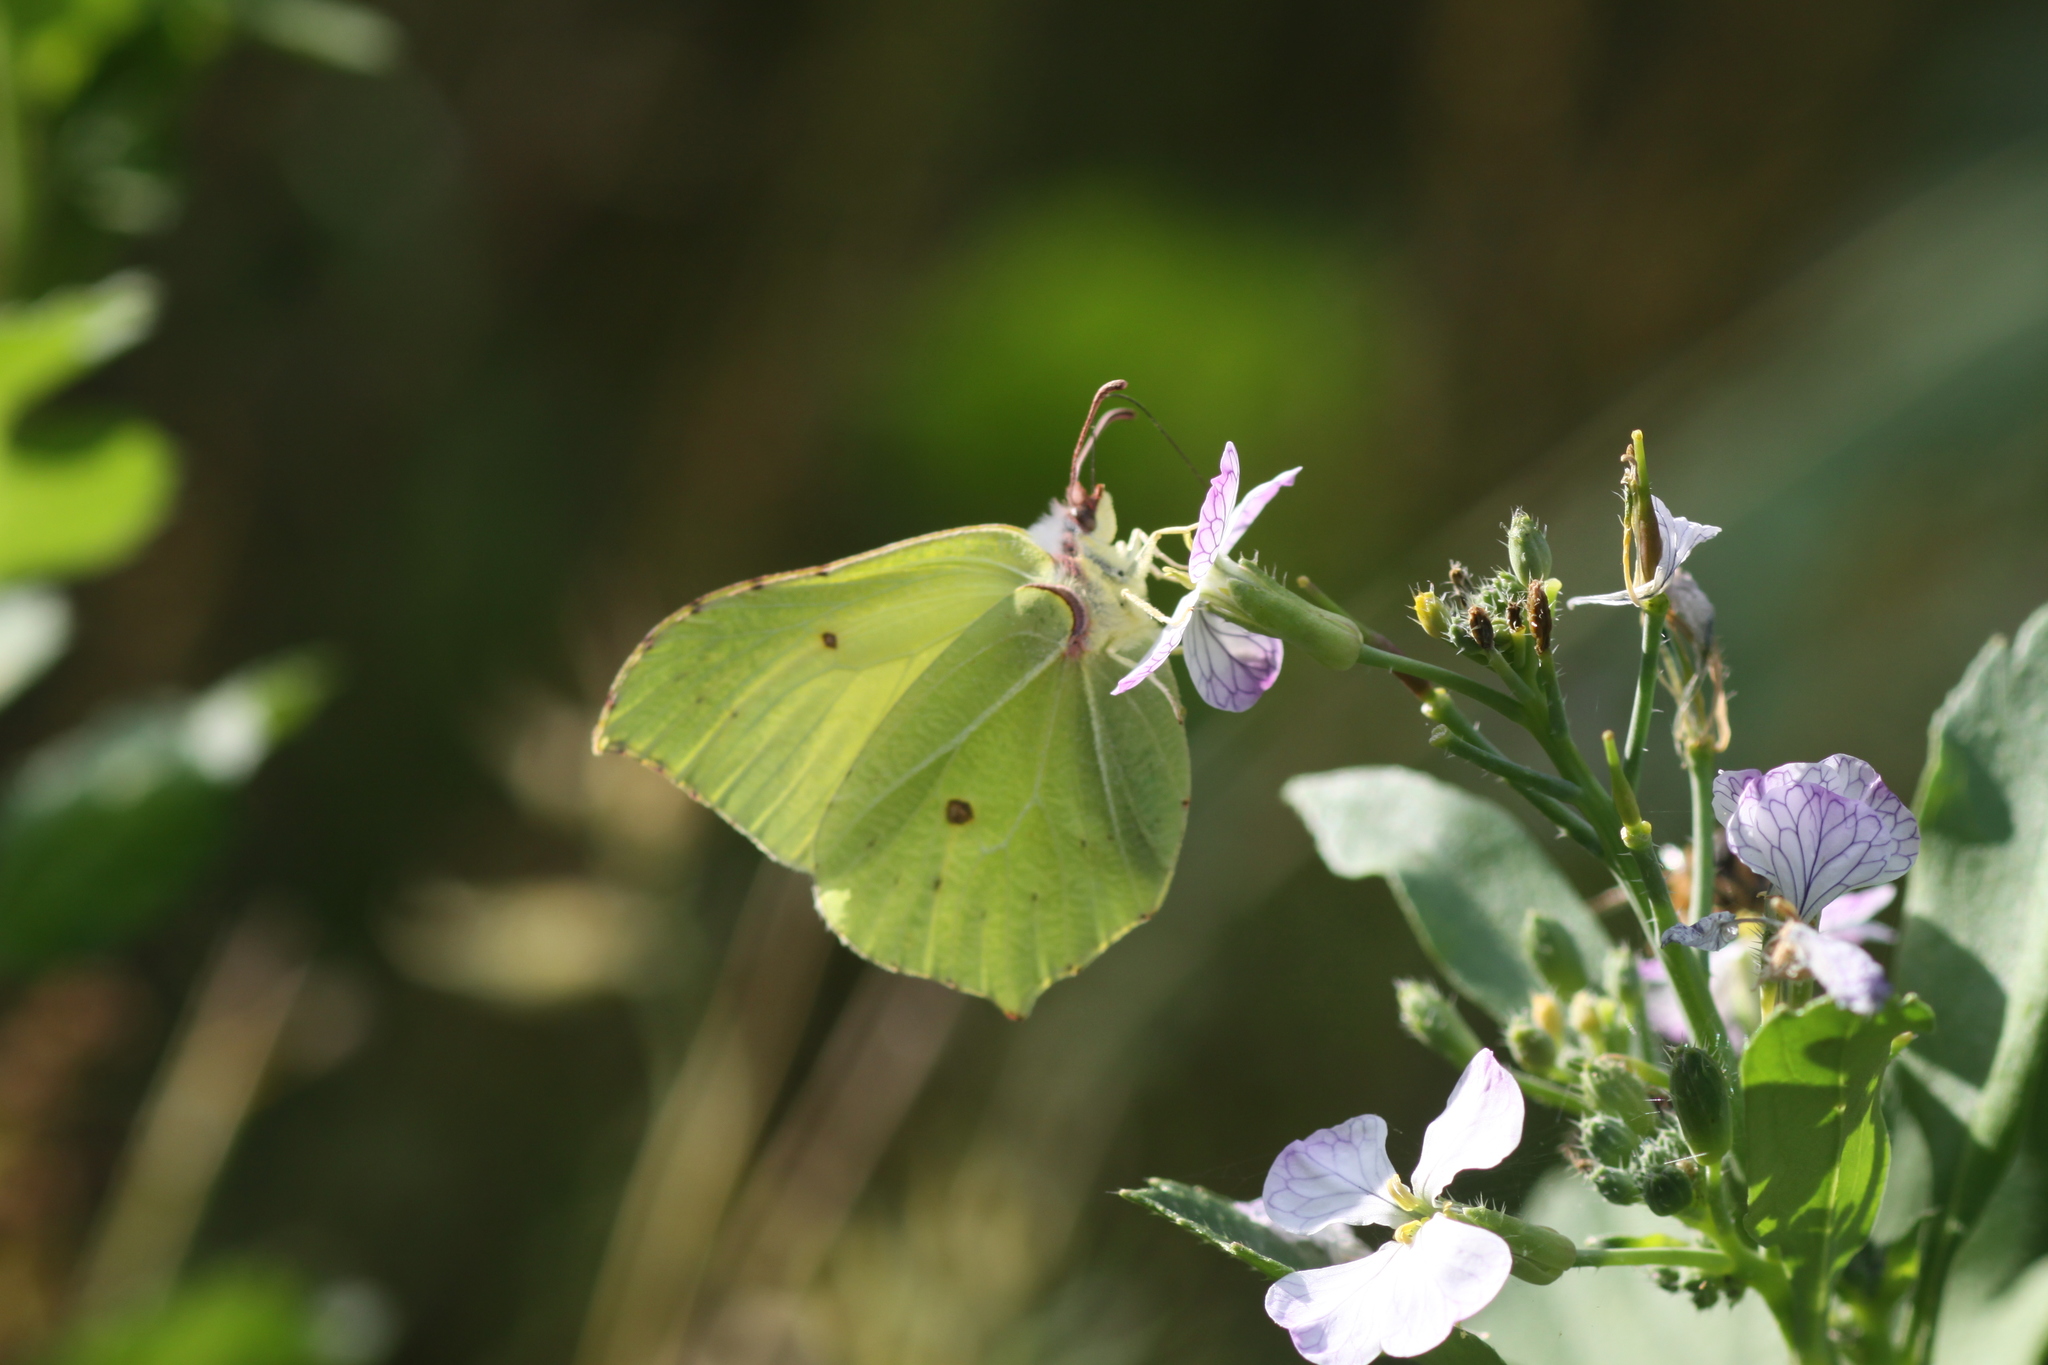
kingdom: Animalia
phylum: Arthropoda
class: Insecta
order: Lepidoptera
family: Pieridae
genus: Gonepteryx
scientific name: Gonepteryx rhamni
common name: Brimstone
